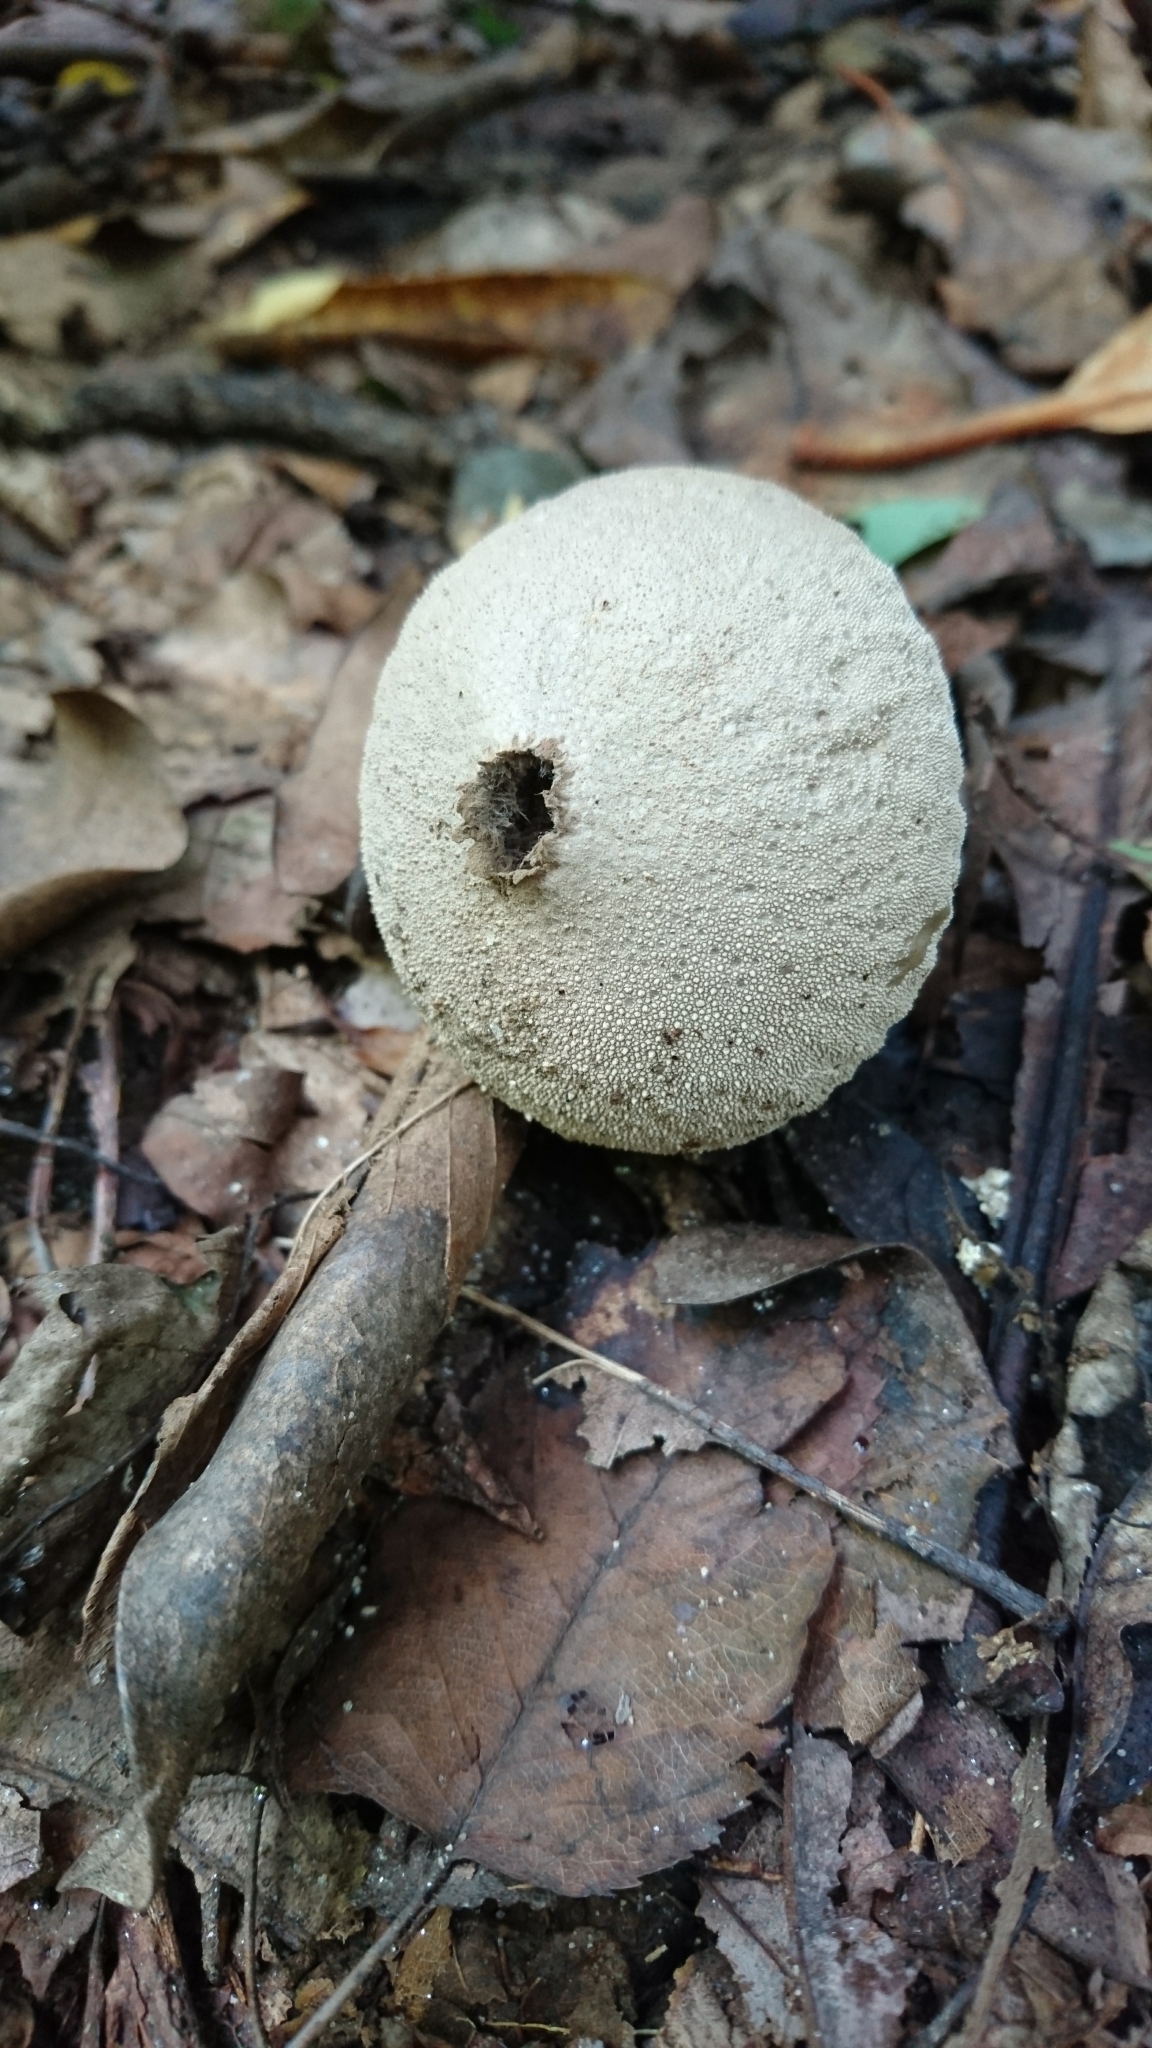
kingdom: Fungi
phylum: Basidiomycota
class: Agaricomycetes
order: Agaricales
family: Lycoperdaceae
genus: Lycoperdon
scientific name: Lycoperdon perlatum
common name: Common puffball
